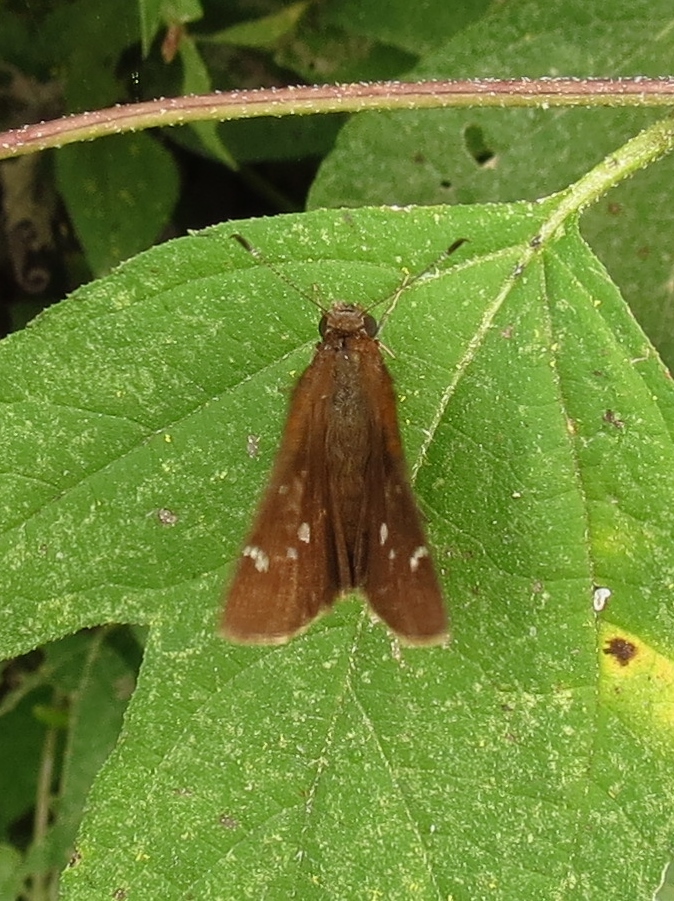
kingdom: Animalia
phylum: Arthropoda
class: Insecta
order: Lepidoptera
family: Hesperiidae
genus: Lerema
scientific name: Lerema accius
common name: Clouded skipper
